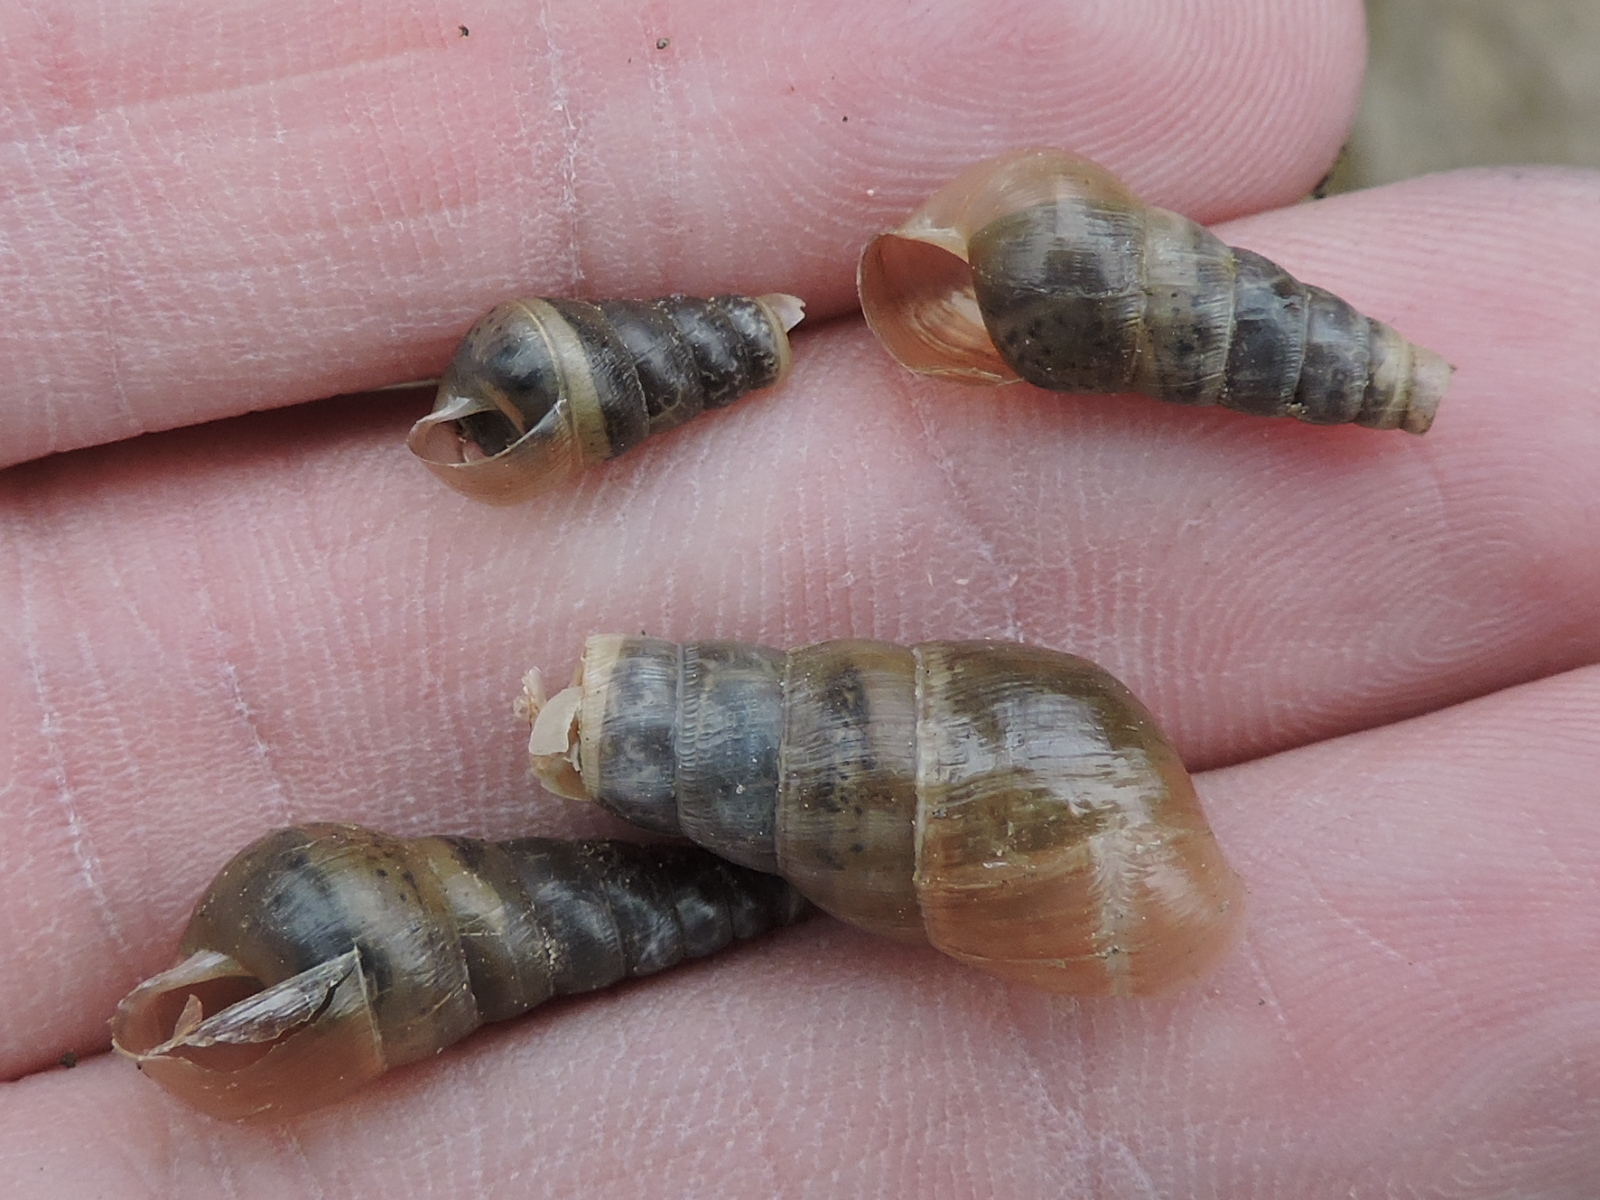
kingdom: Animalia
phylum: Mollusca
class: Gastropoda
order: Stylommatophora
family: Achatinidae
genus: Rumina
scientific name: Rumina decollata
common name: Decollate snail
